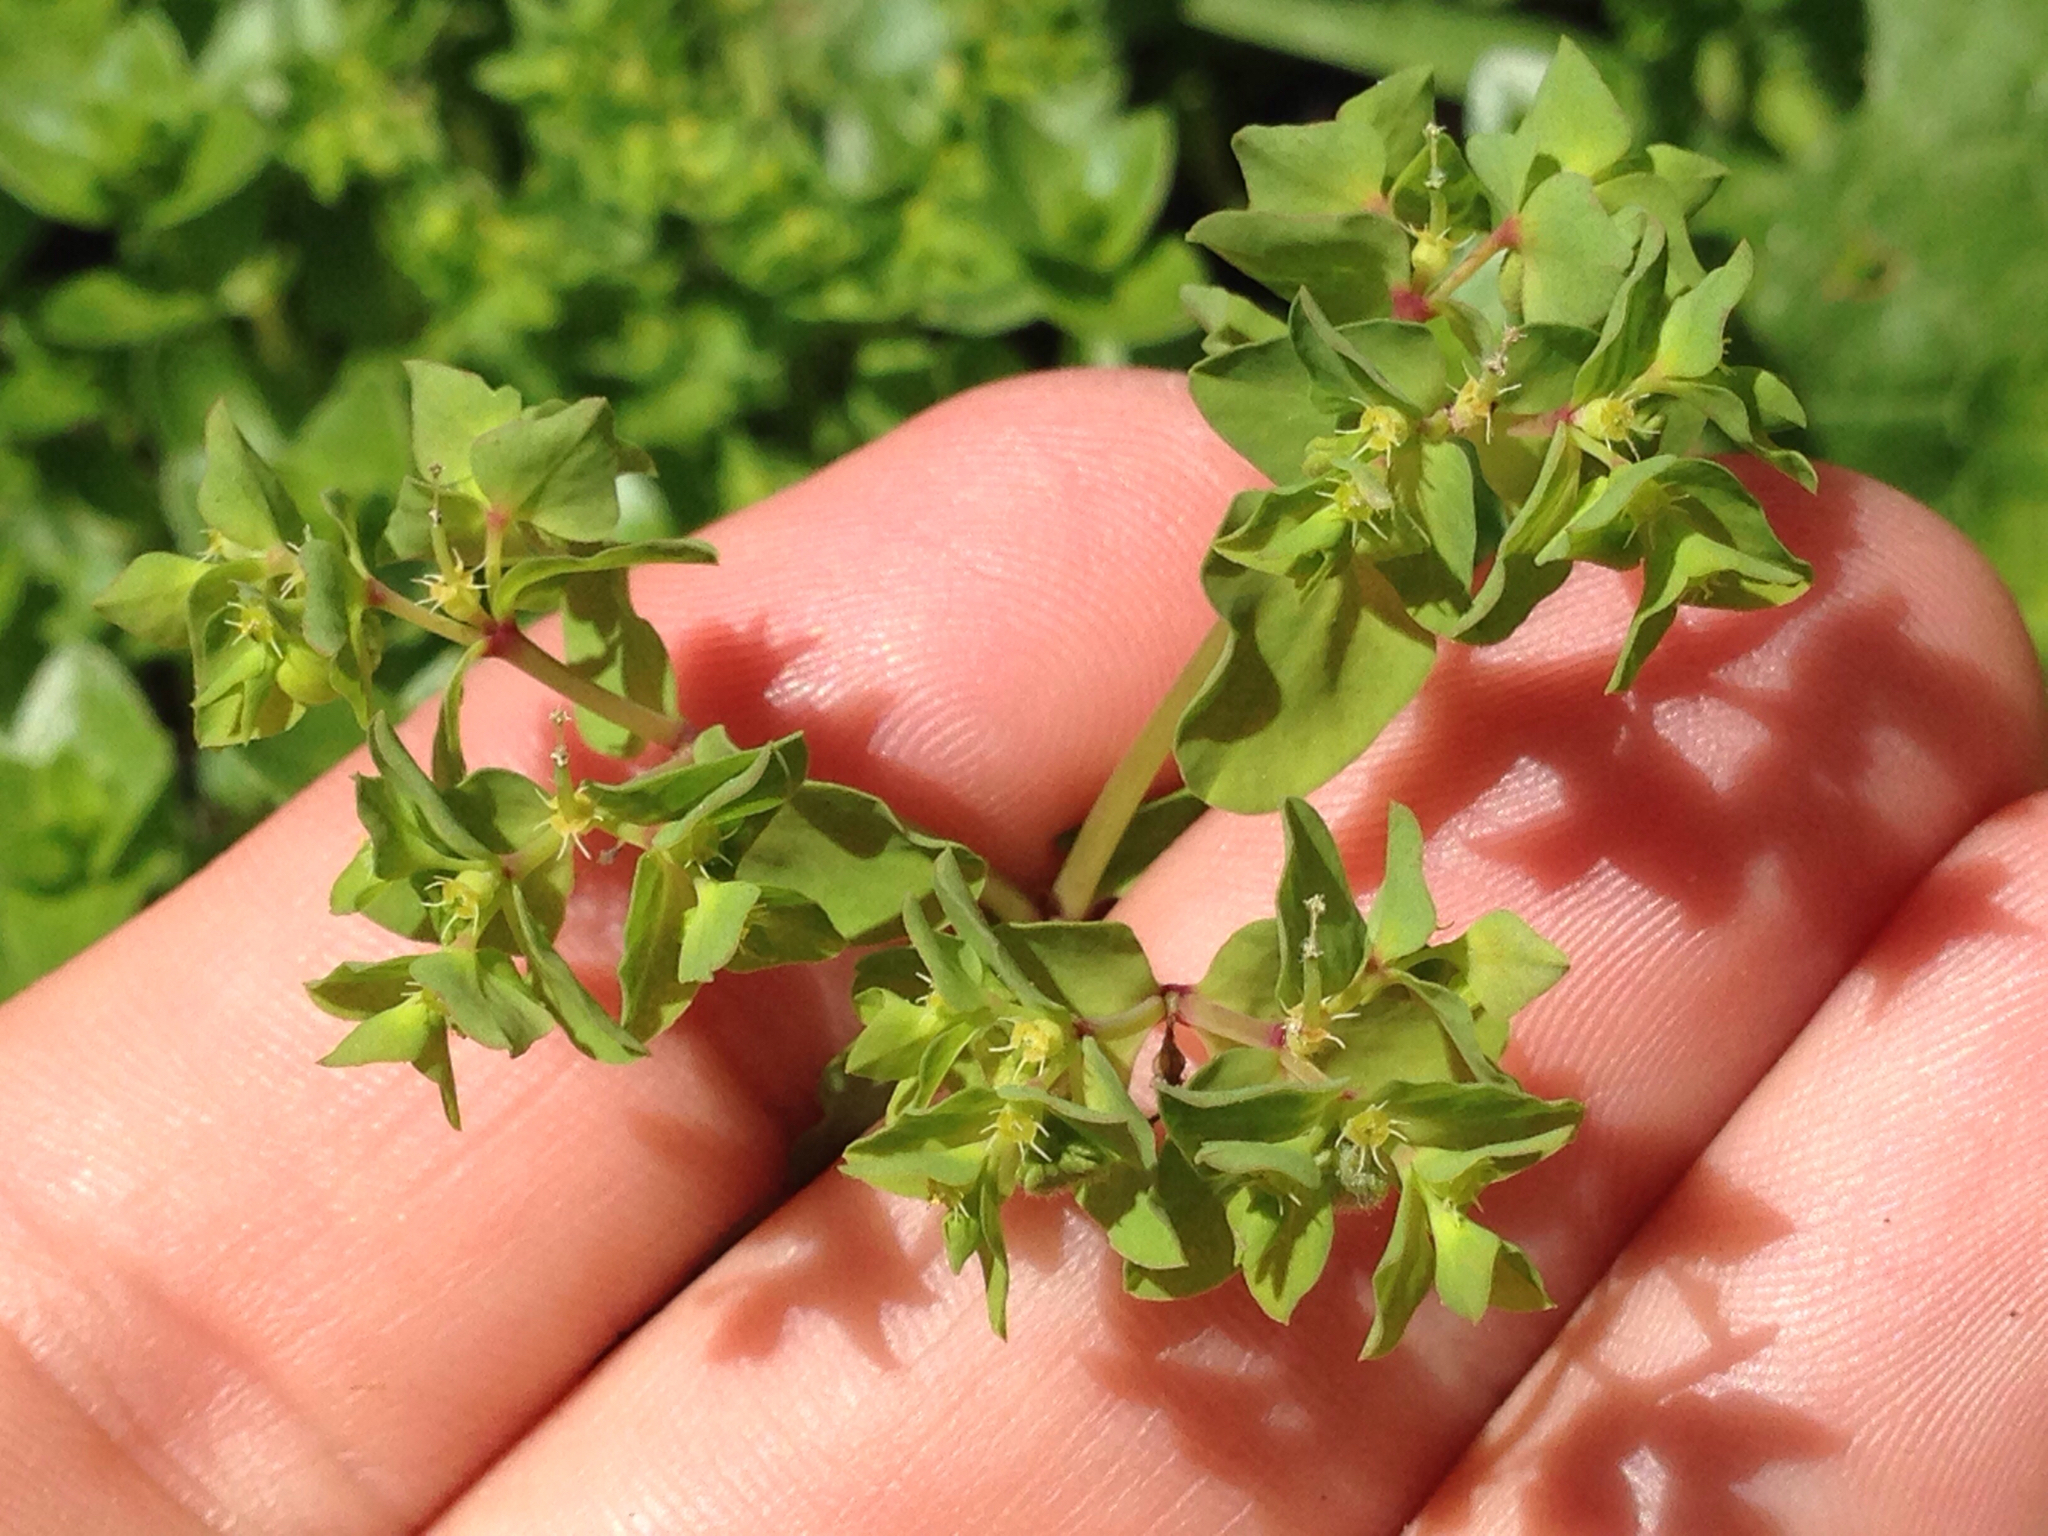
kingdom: Plantae
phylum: Tracheophyta
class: Magnoliopsida
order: Malpighiales
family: Euphorbiaceae
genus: Euphorbia
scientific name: Euphorbia peplus
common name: Petty spurge
